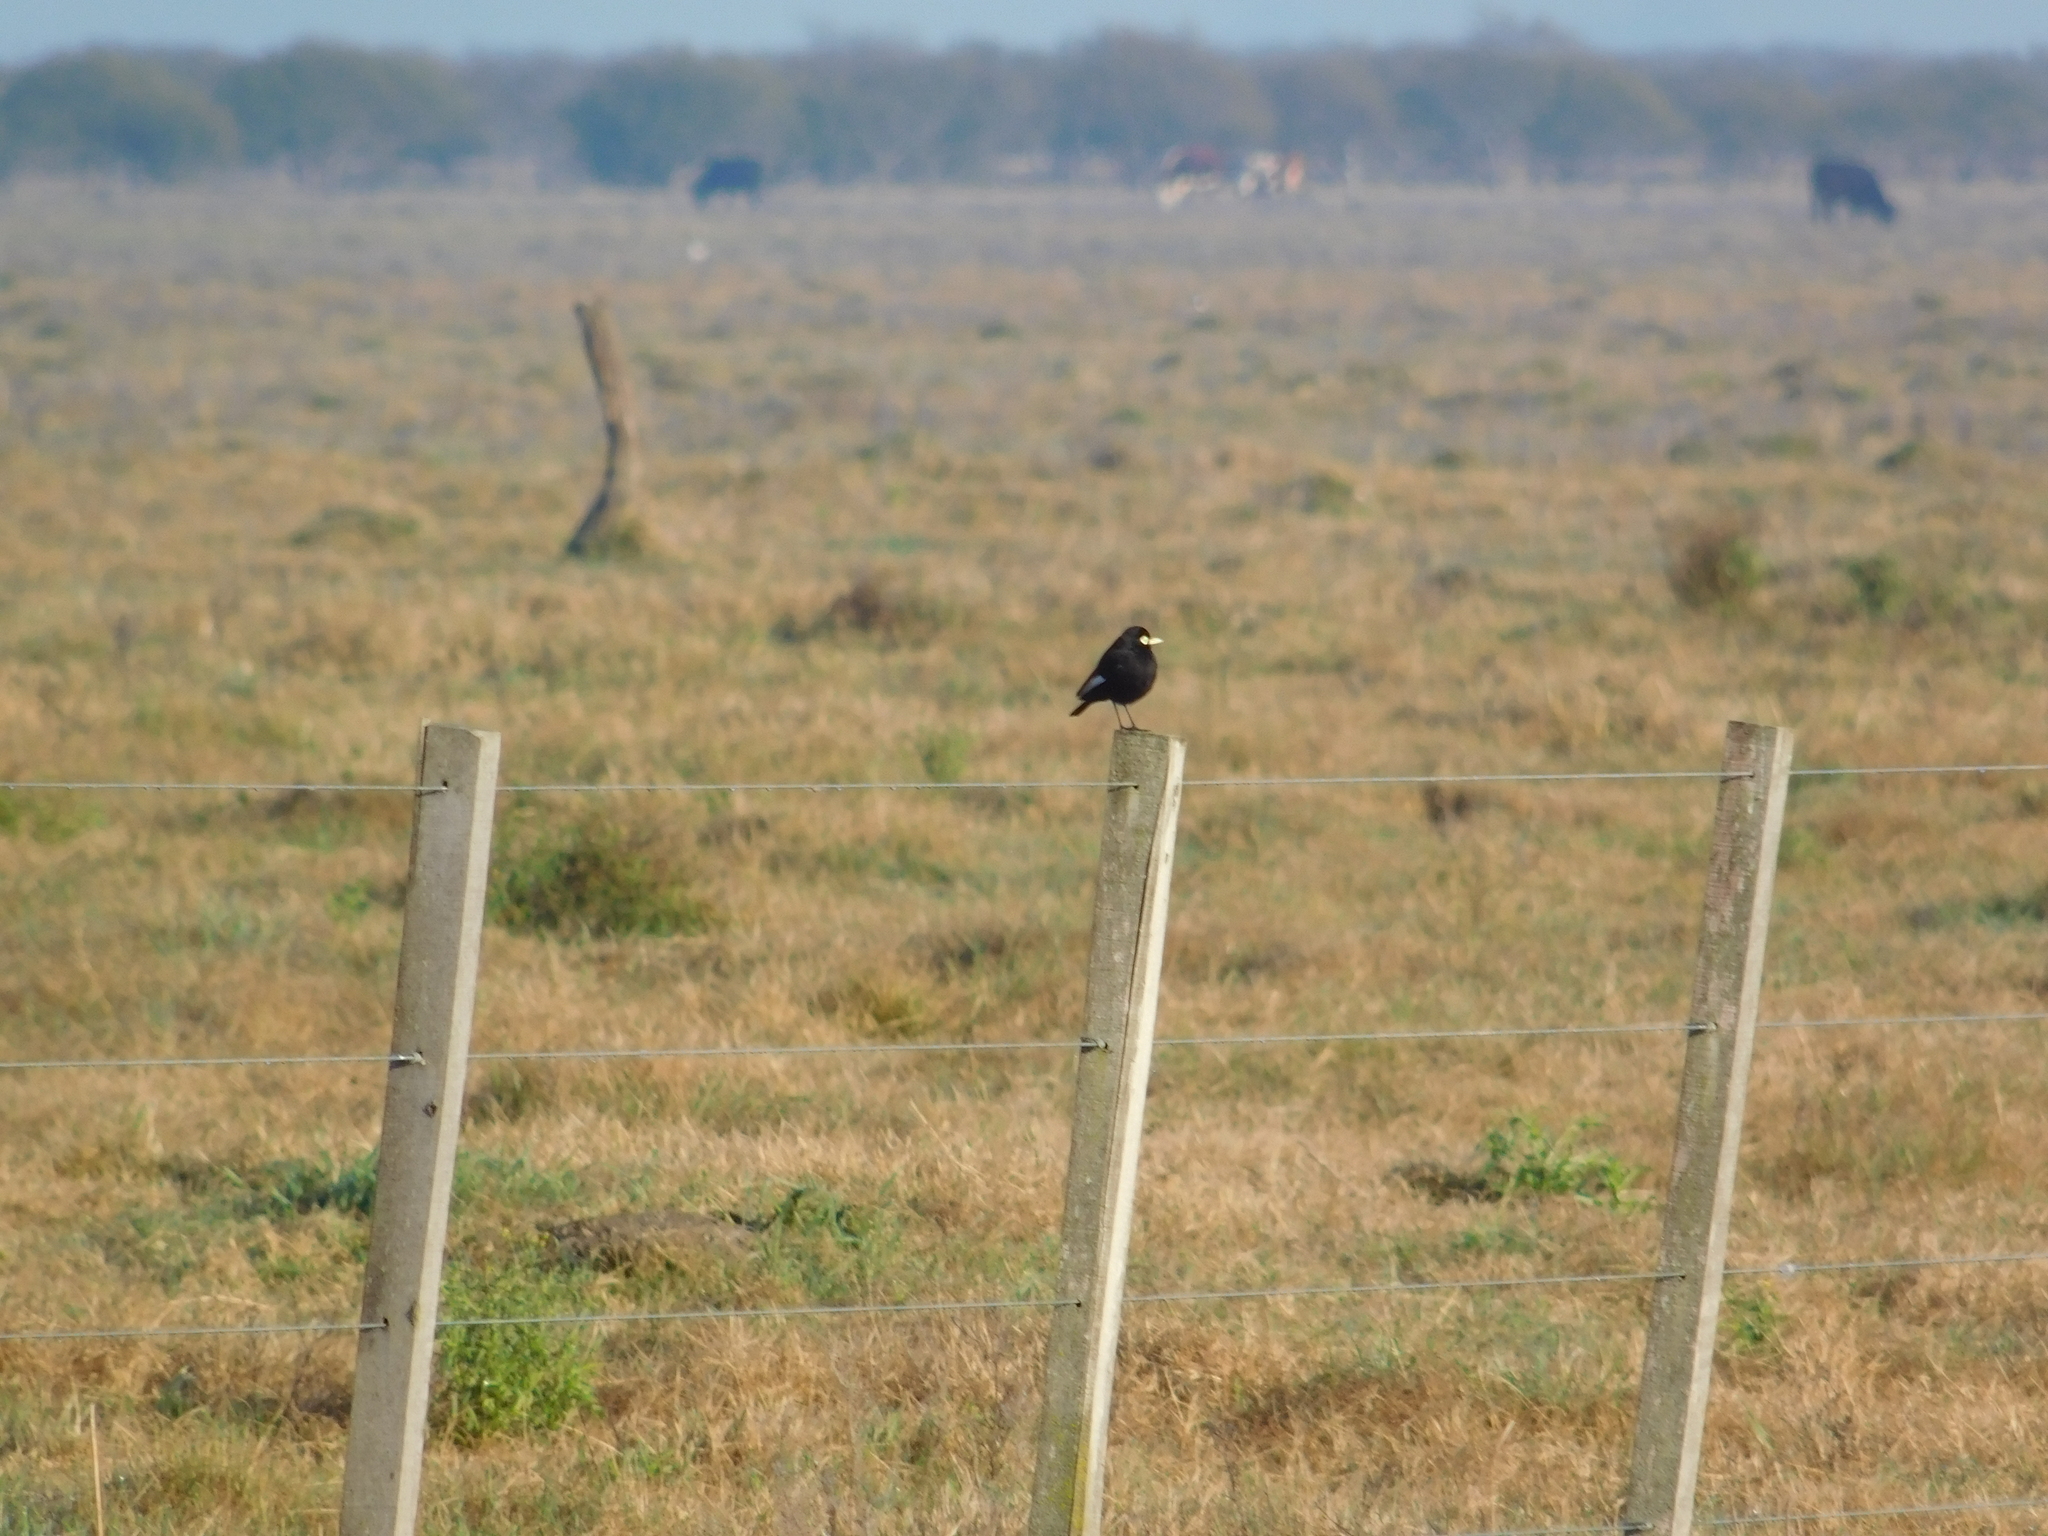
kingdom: Animalia
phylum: Chordata
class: Aves
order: Passeriformes
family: Tyrannidae
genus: Hymenops
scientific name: Hymenops perspicillatus
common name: Spectacled tyrant
